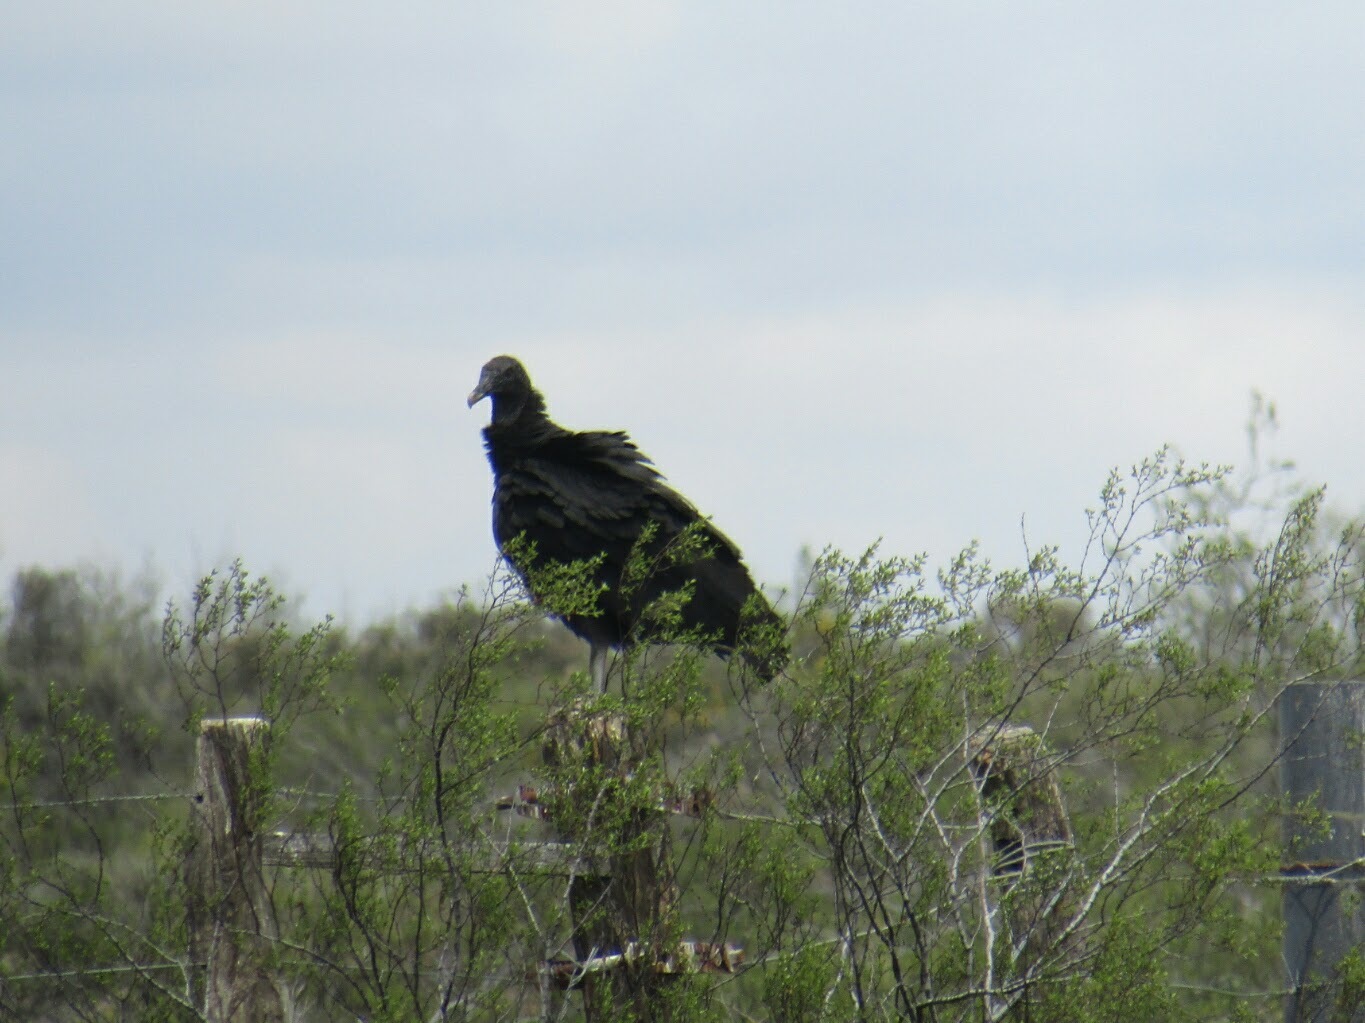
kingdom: Animalia
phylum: Chordata
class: Aves
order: Accipitriformes
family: Cathartidae
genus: Coragyps
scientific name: Coragyps atratus
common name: Black vulture
